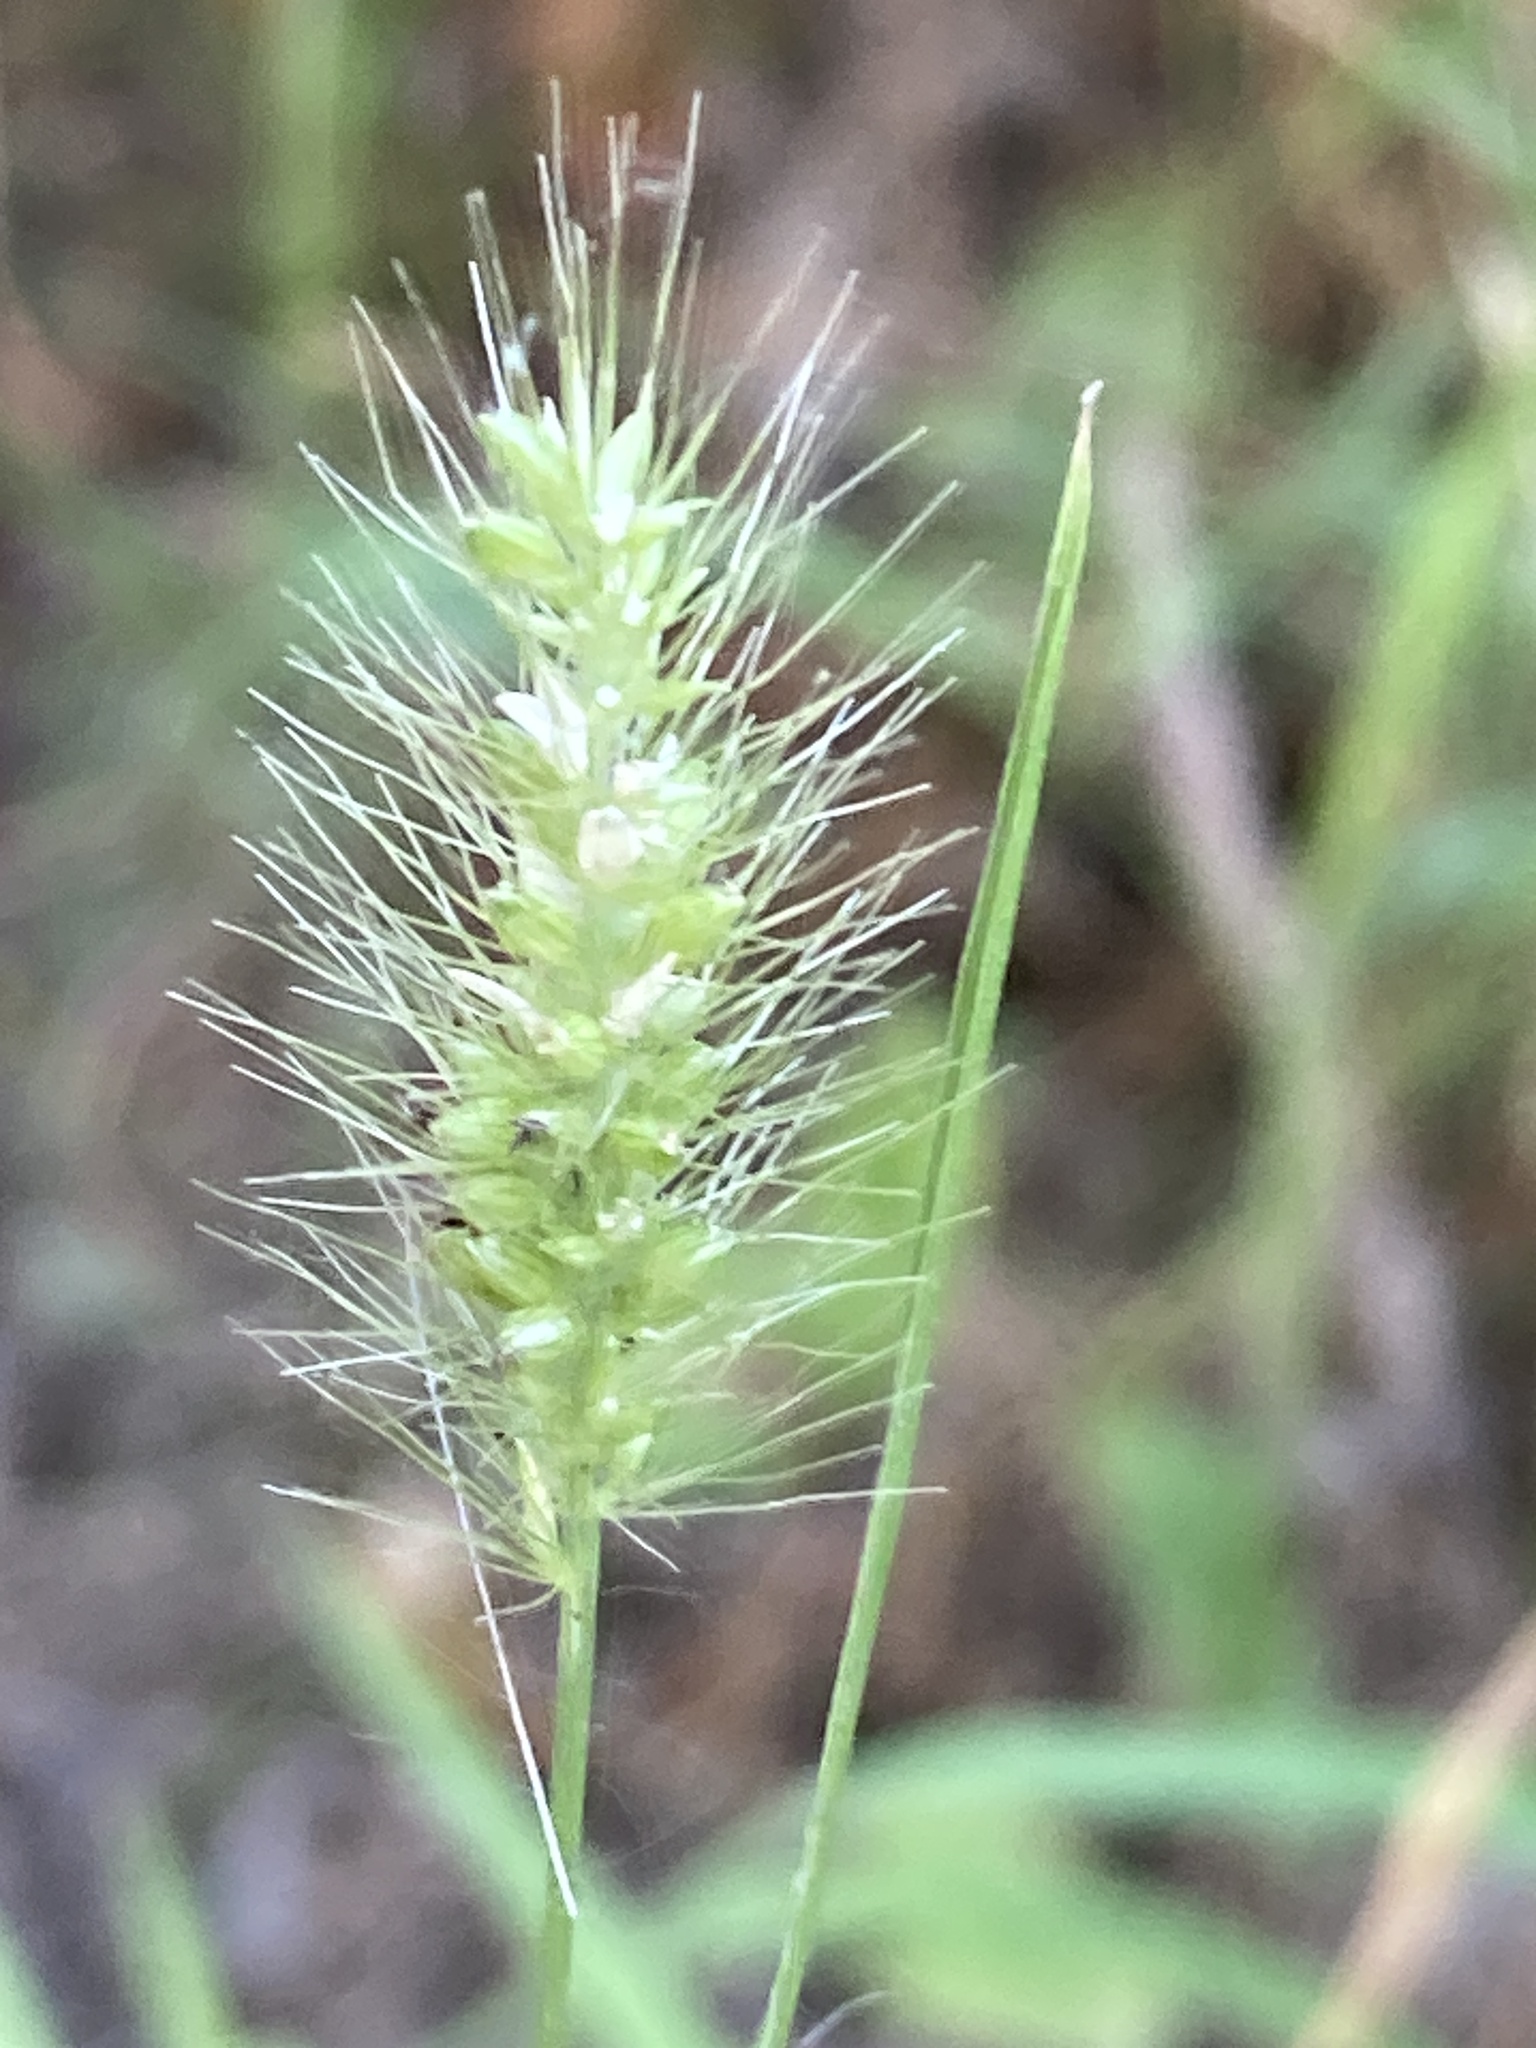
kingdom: Plantae
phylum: Tracheophyta
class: Liliopsida
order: Poales
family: Poaceae
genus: Setaria
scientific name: Setaria viridis
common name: Green bristlegrass
